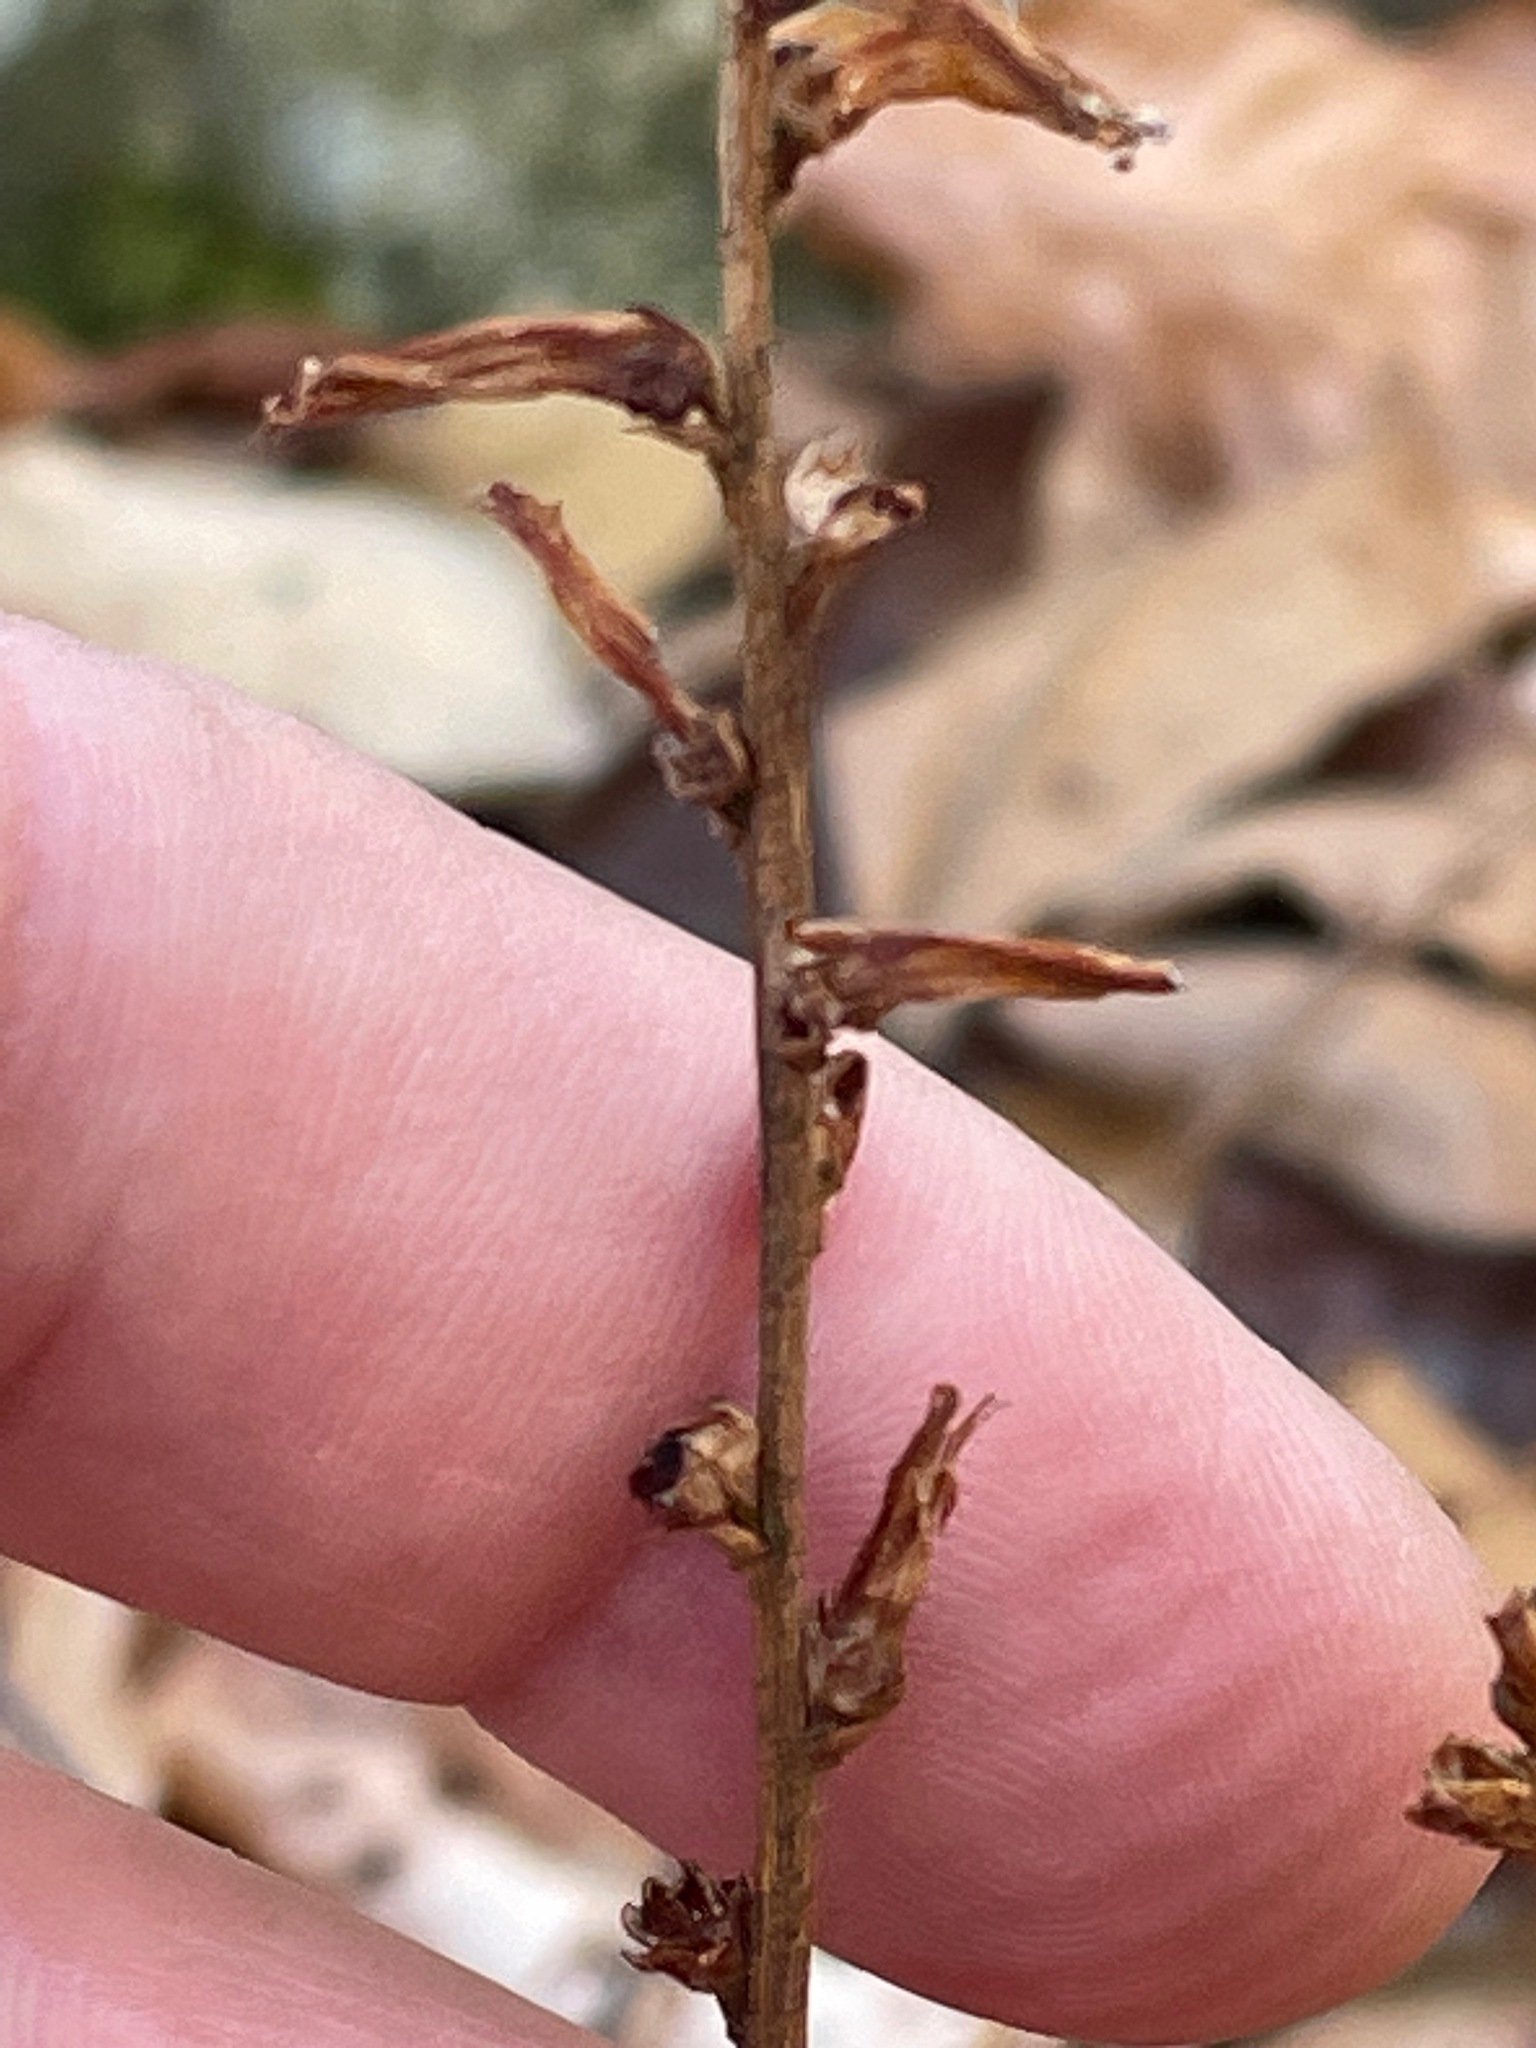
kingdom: Plantae
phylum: Tracheophyta
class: Magnoliopsida
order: Lamiales
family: Orobanchaceae
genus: Epifagus
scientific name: Epifagus virginiana
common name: Beechdrops
